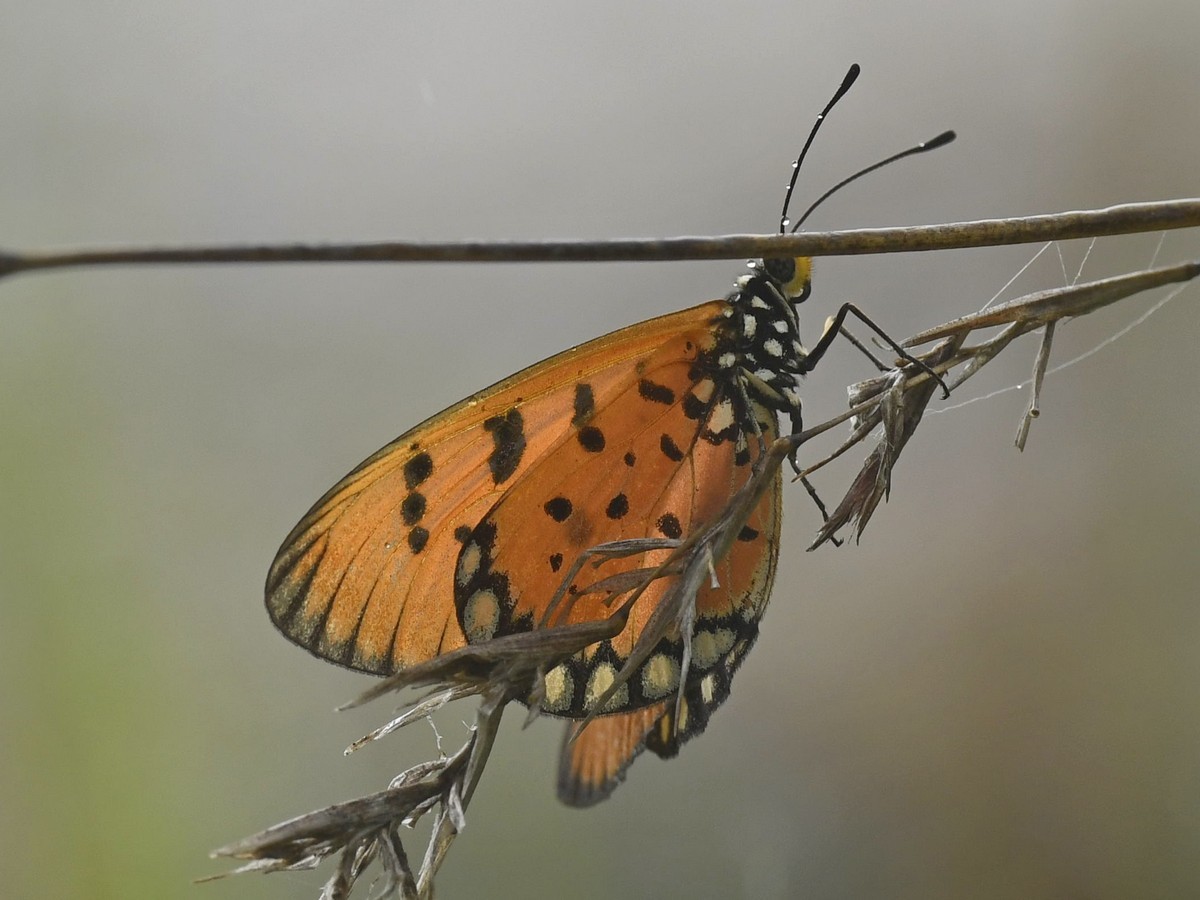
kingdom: Animalia
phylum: Arthropoda
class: Insecta
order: Lepidoptera
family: Nymphalidae
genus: Acraea
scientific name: Acraea terpsicore
